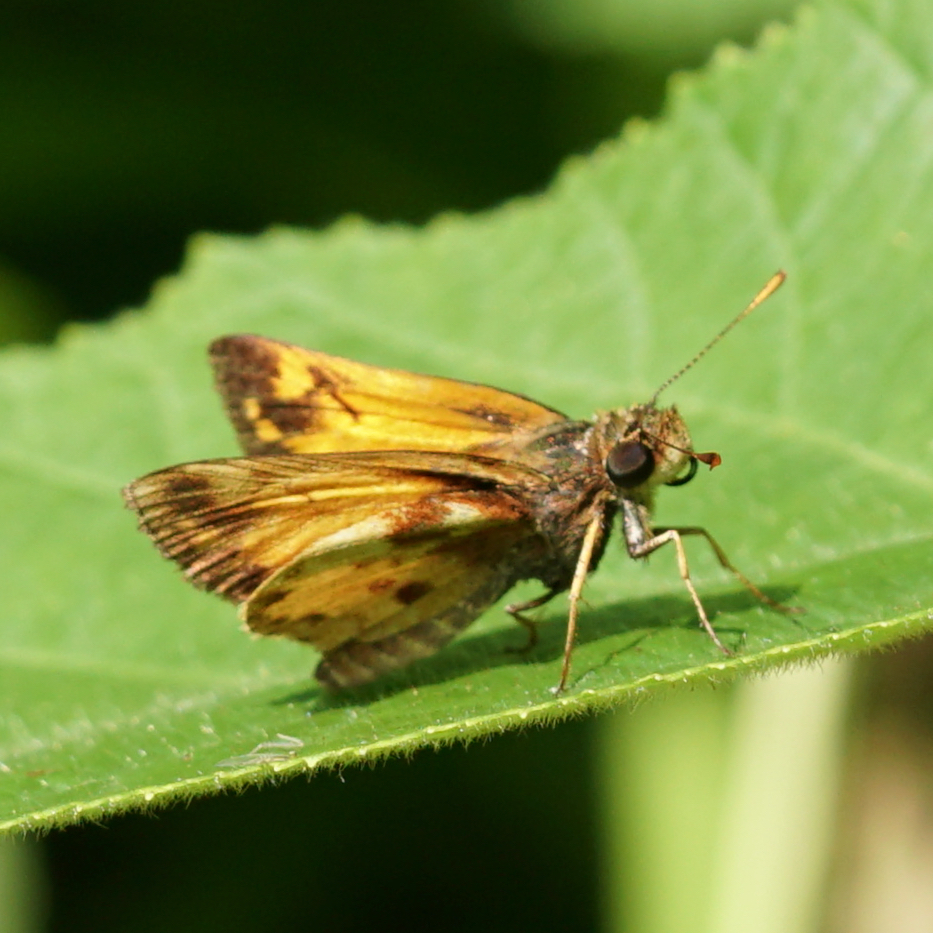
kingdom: Animalia
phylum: Arthropoda
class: Insecta
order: Lepidoptera
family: Hesperiidae
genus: Lon
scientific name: Lon zabulon
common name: Zabulon skipper
